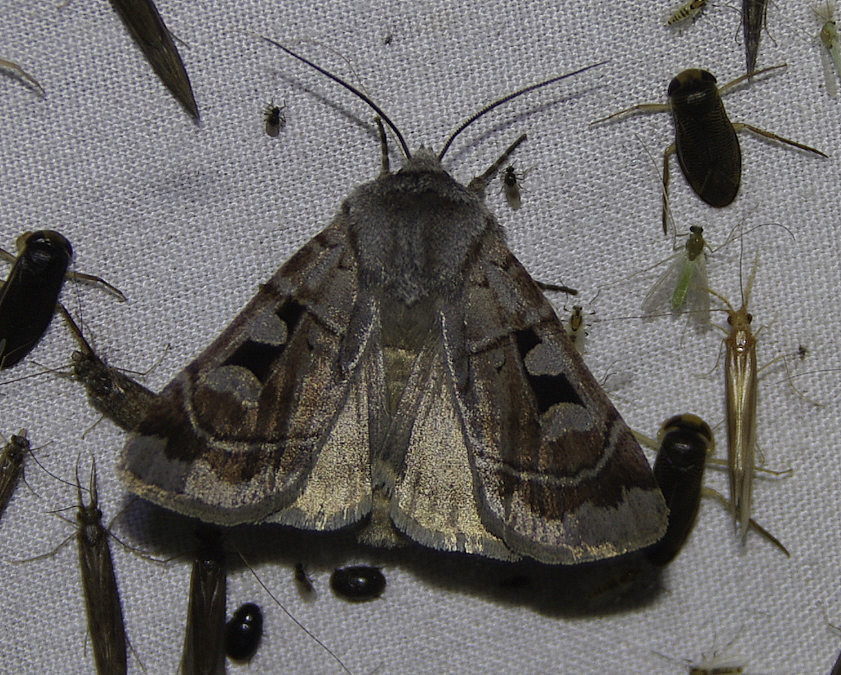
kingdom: Animalia
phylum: Arthropoda
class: Insecta
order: Lepidoptera
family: Noctuidae
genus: Feltia
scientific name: Feltia mollis
